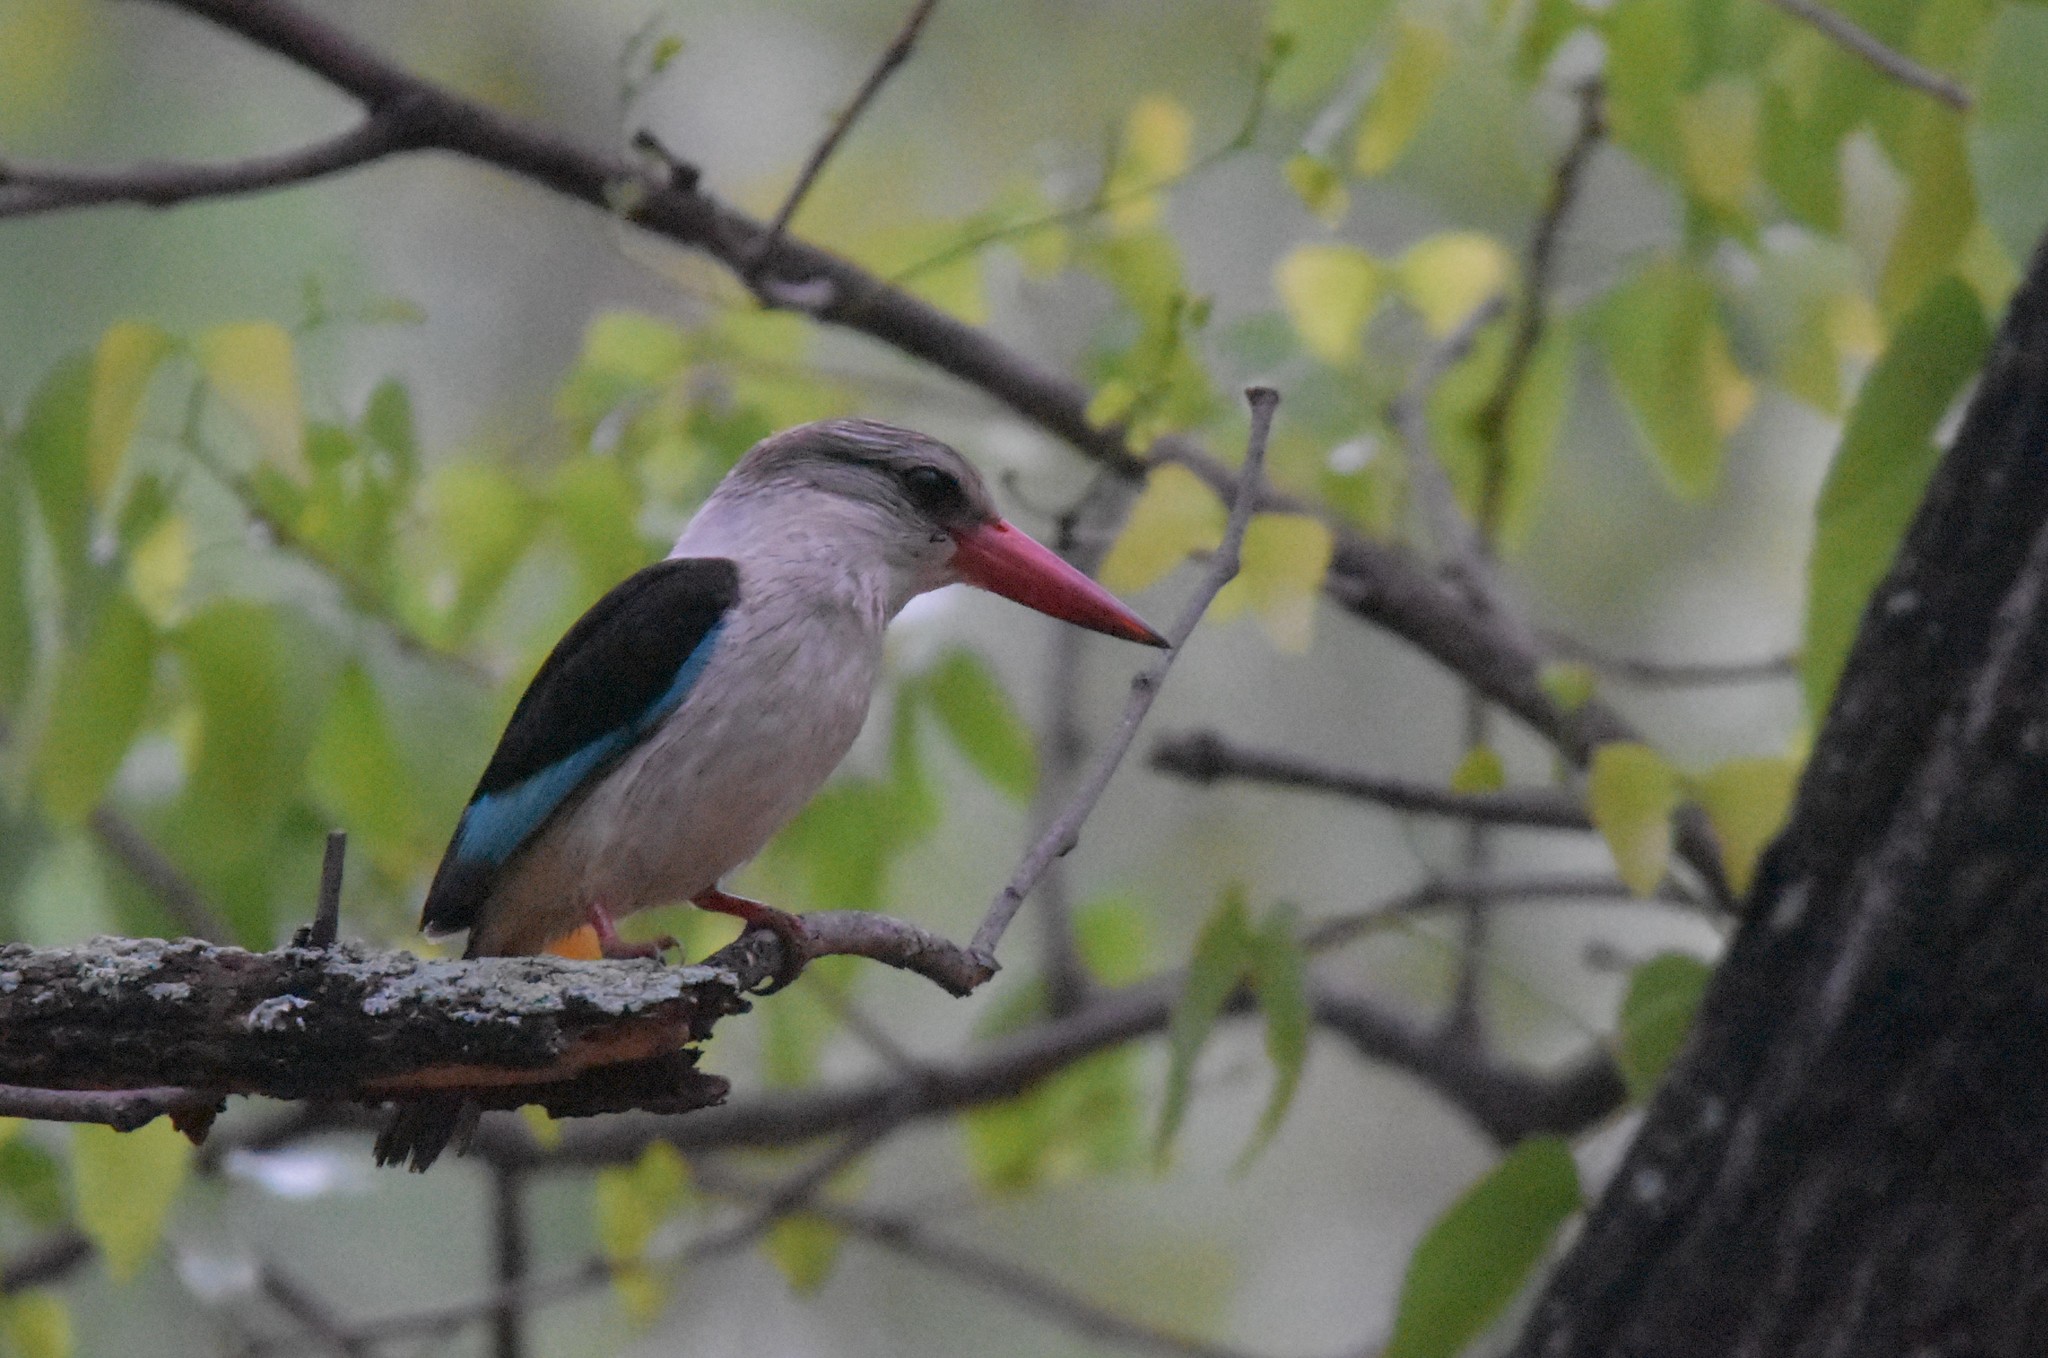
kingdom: Animalia
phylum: Chordata
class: Aves
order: Coraciiformes
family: Alcedinidae
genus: Halcyon
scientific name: Halcyon albiventris
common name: Brown-hooded kingfisher
